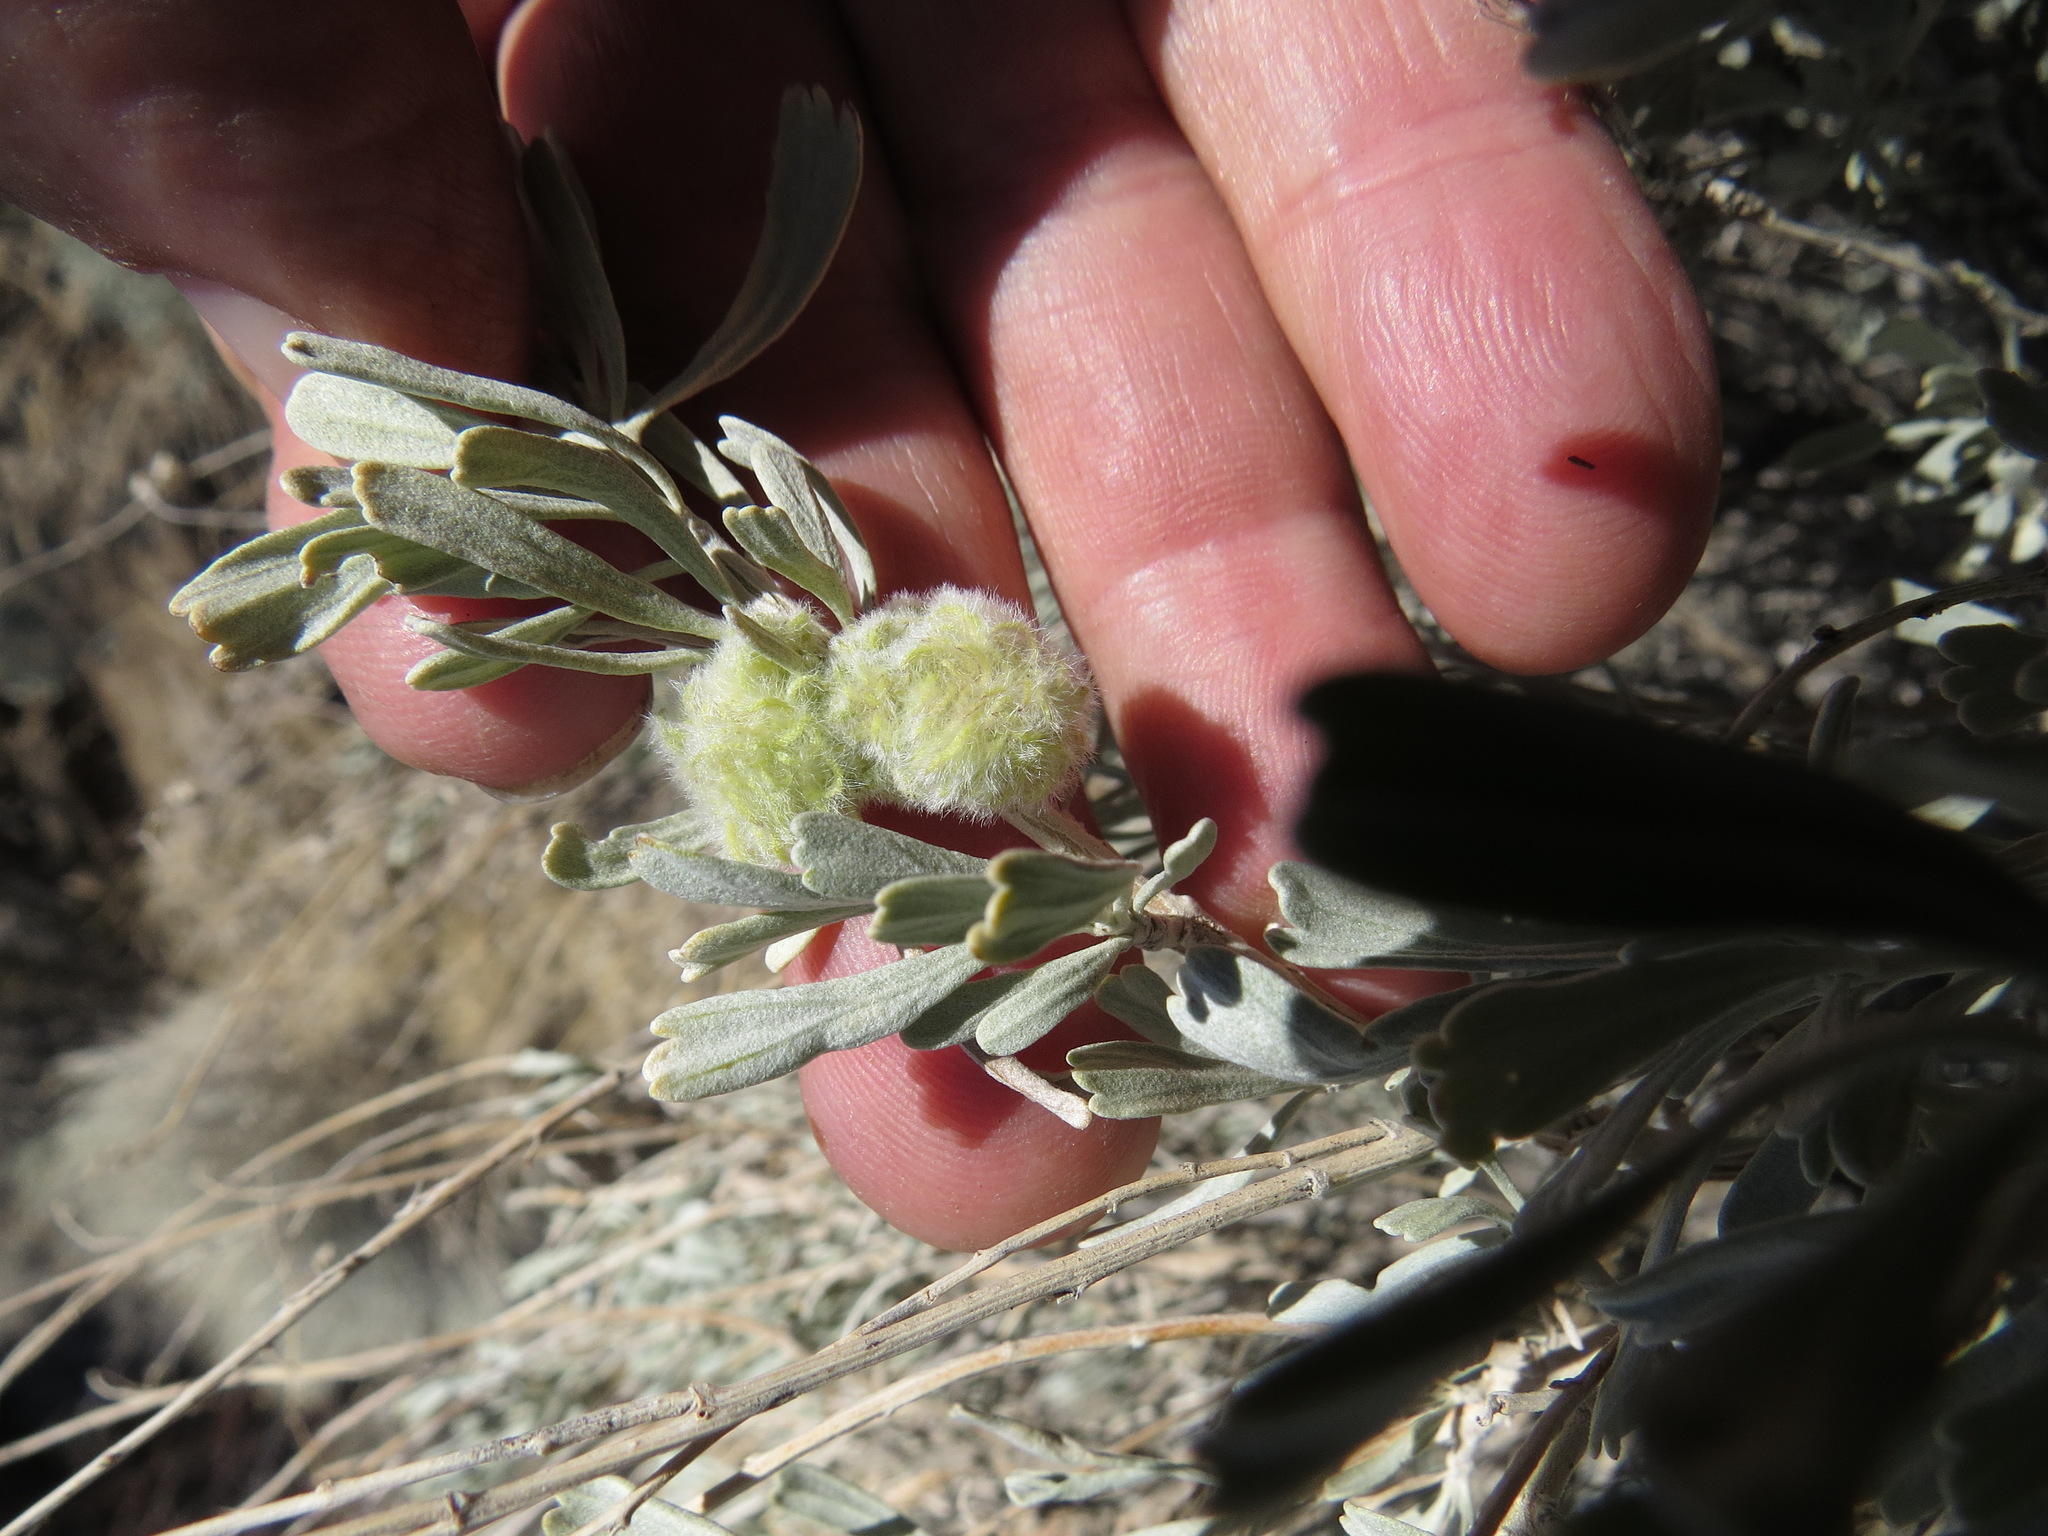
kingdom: Animalia
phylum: Arthropoda
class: Insecta
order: Diptera
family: Cecidomyiidae
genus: Rhopalomyia
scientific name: Rhopalomyia medusirrasa
